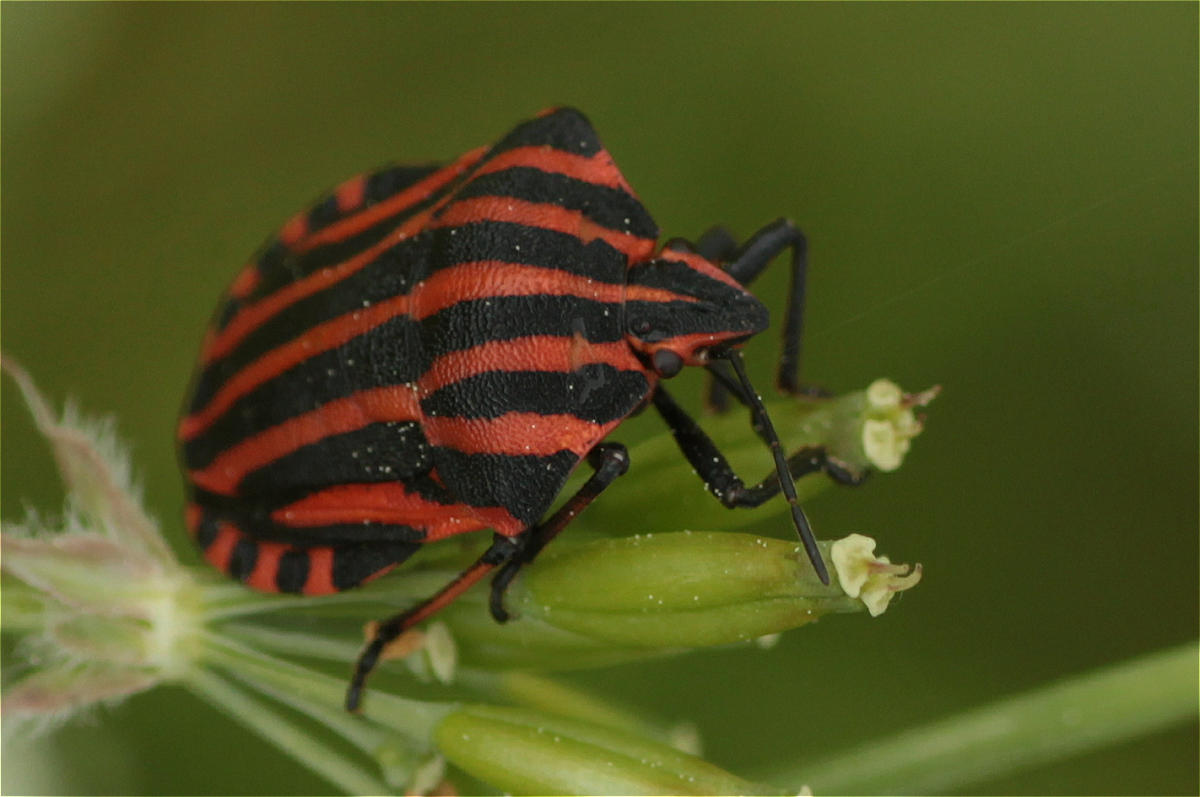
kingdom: Animalia
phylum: Arthropoda
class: Insecta
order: Hemiptera
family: Pentatomidae
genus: Graphosoma
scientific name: Graphosoma italicum
